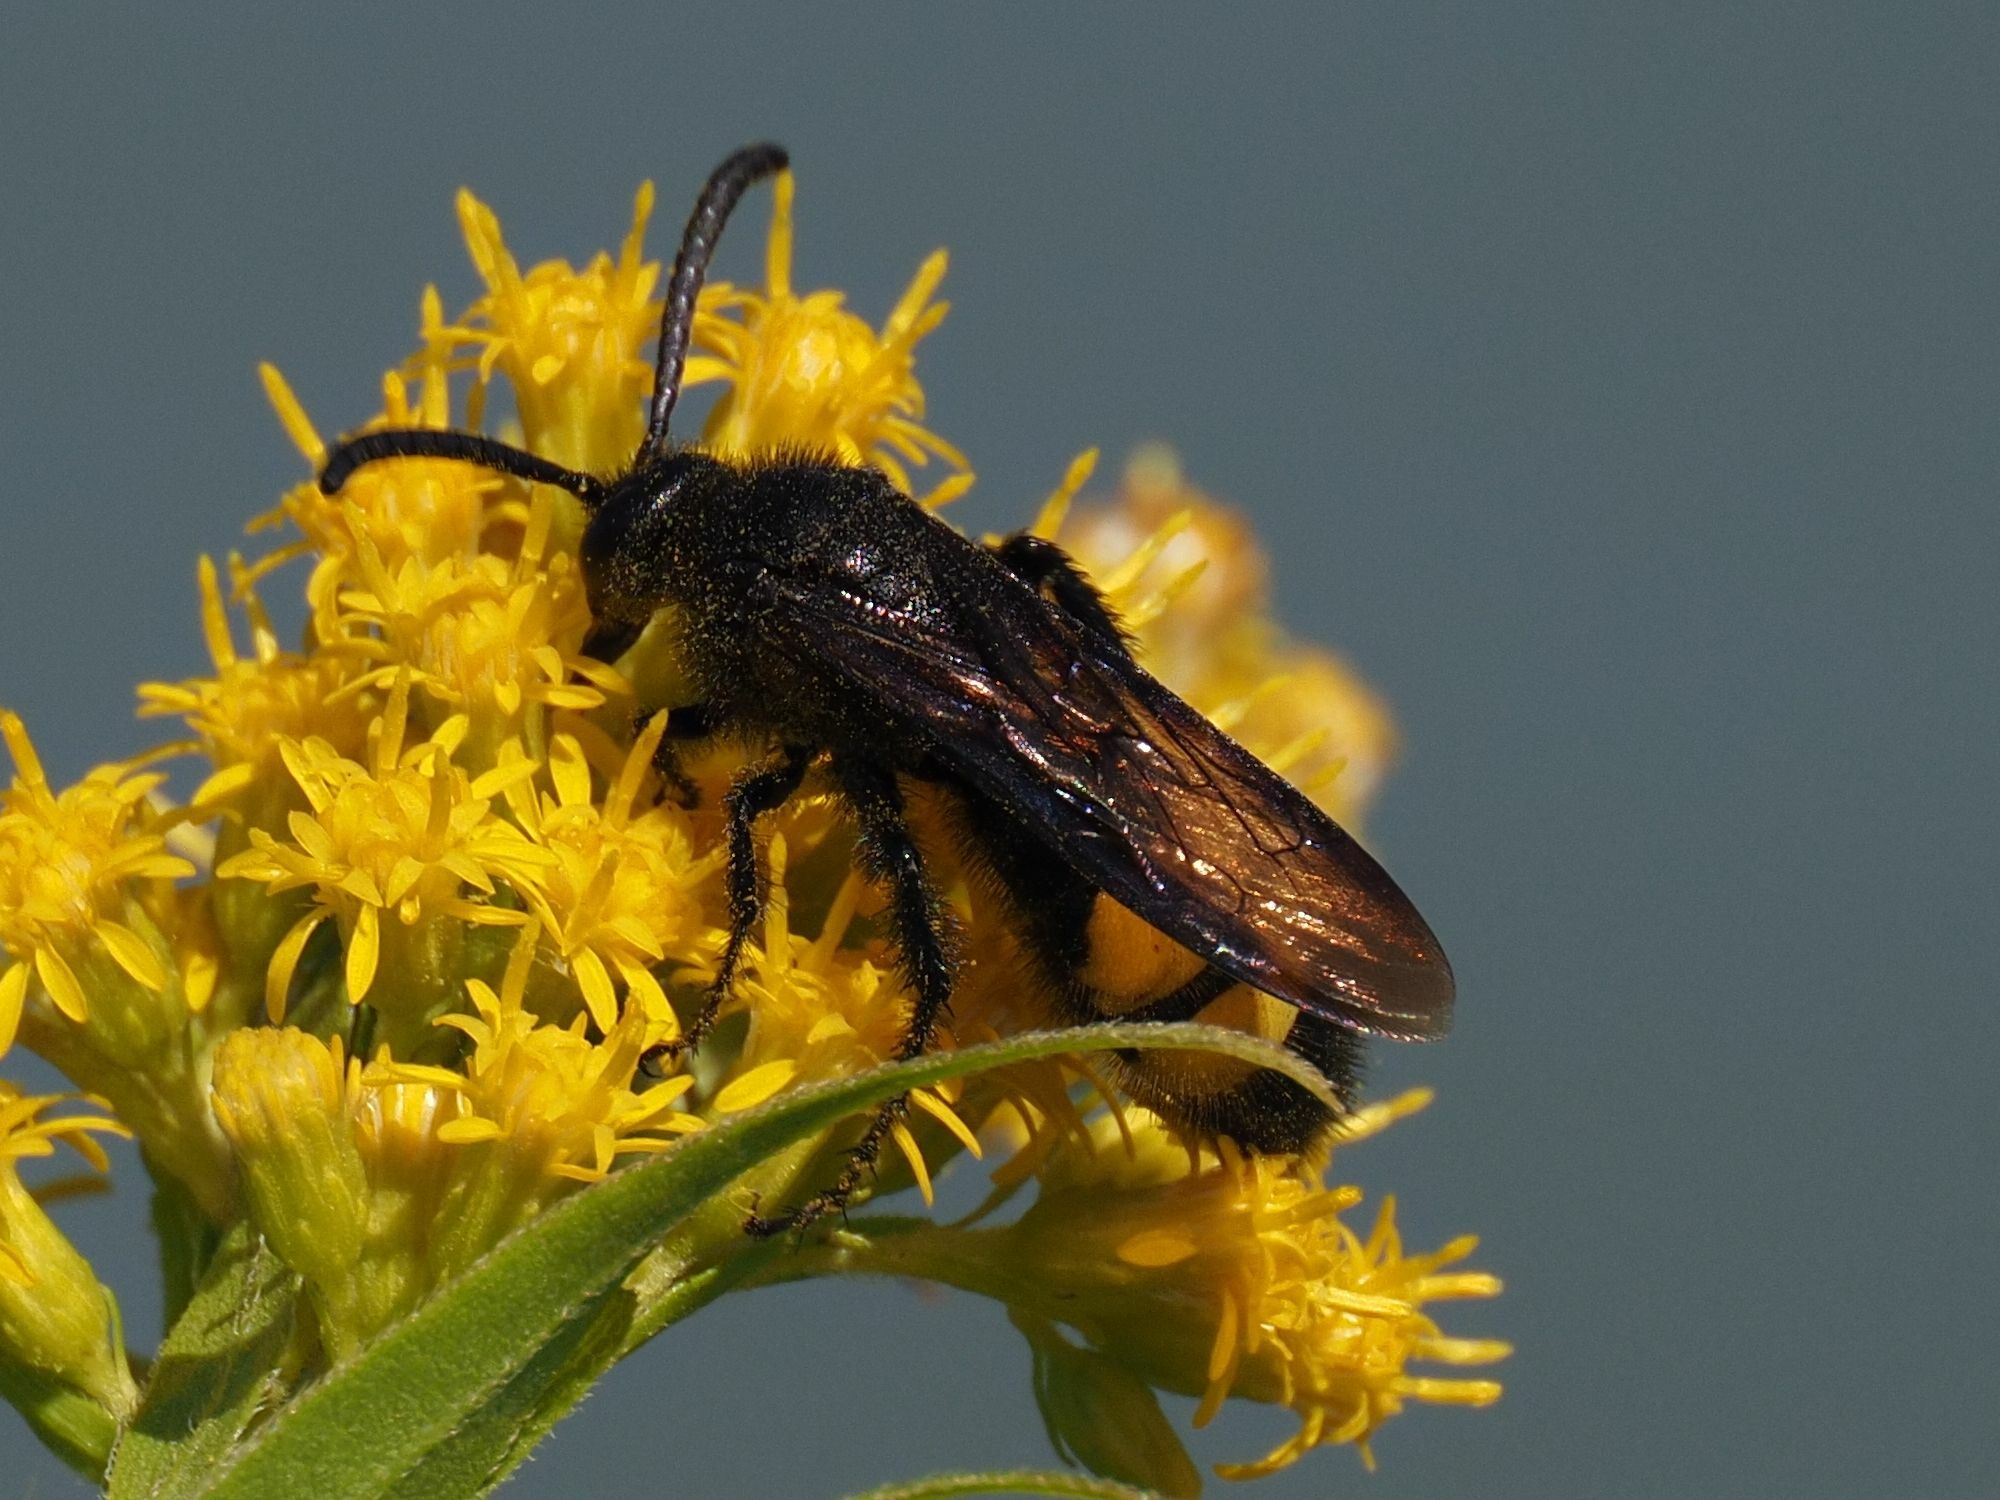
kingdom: Animalia
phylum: Arthropoda
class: Insecta
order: Hymenoptera
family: Scoliidae
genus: Scolia
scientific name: Scolia hirta
